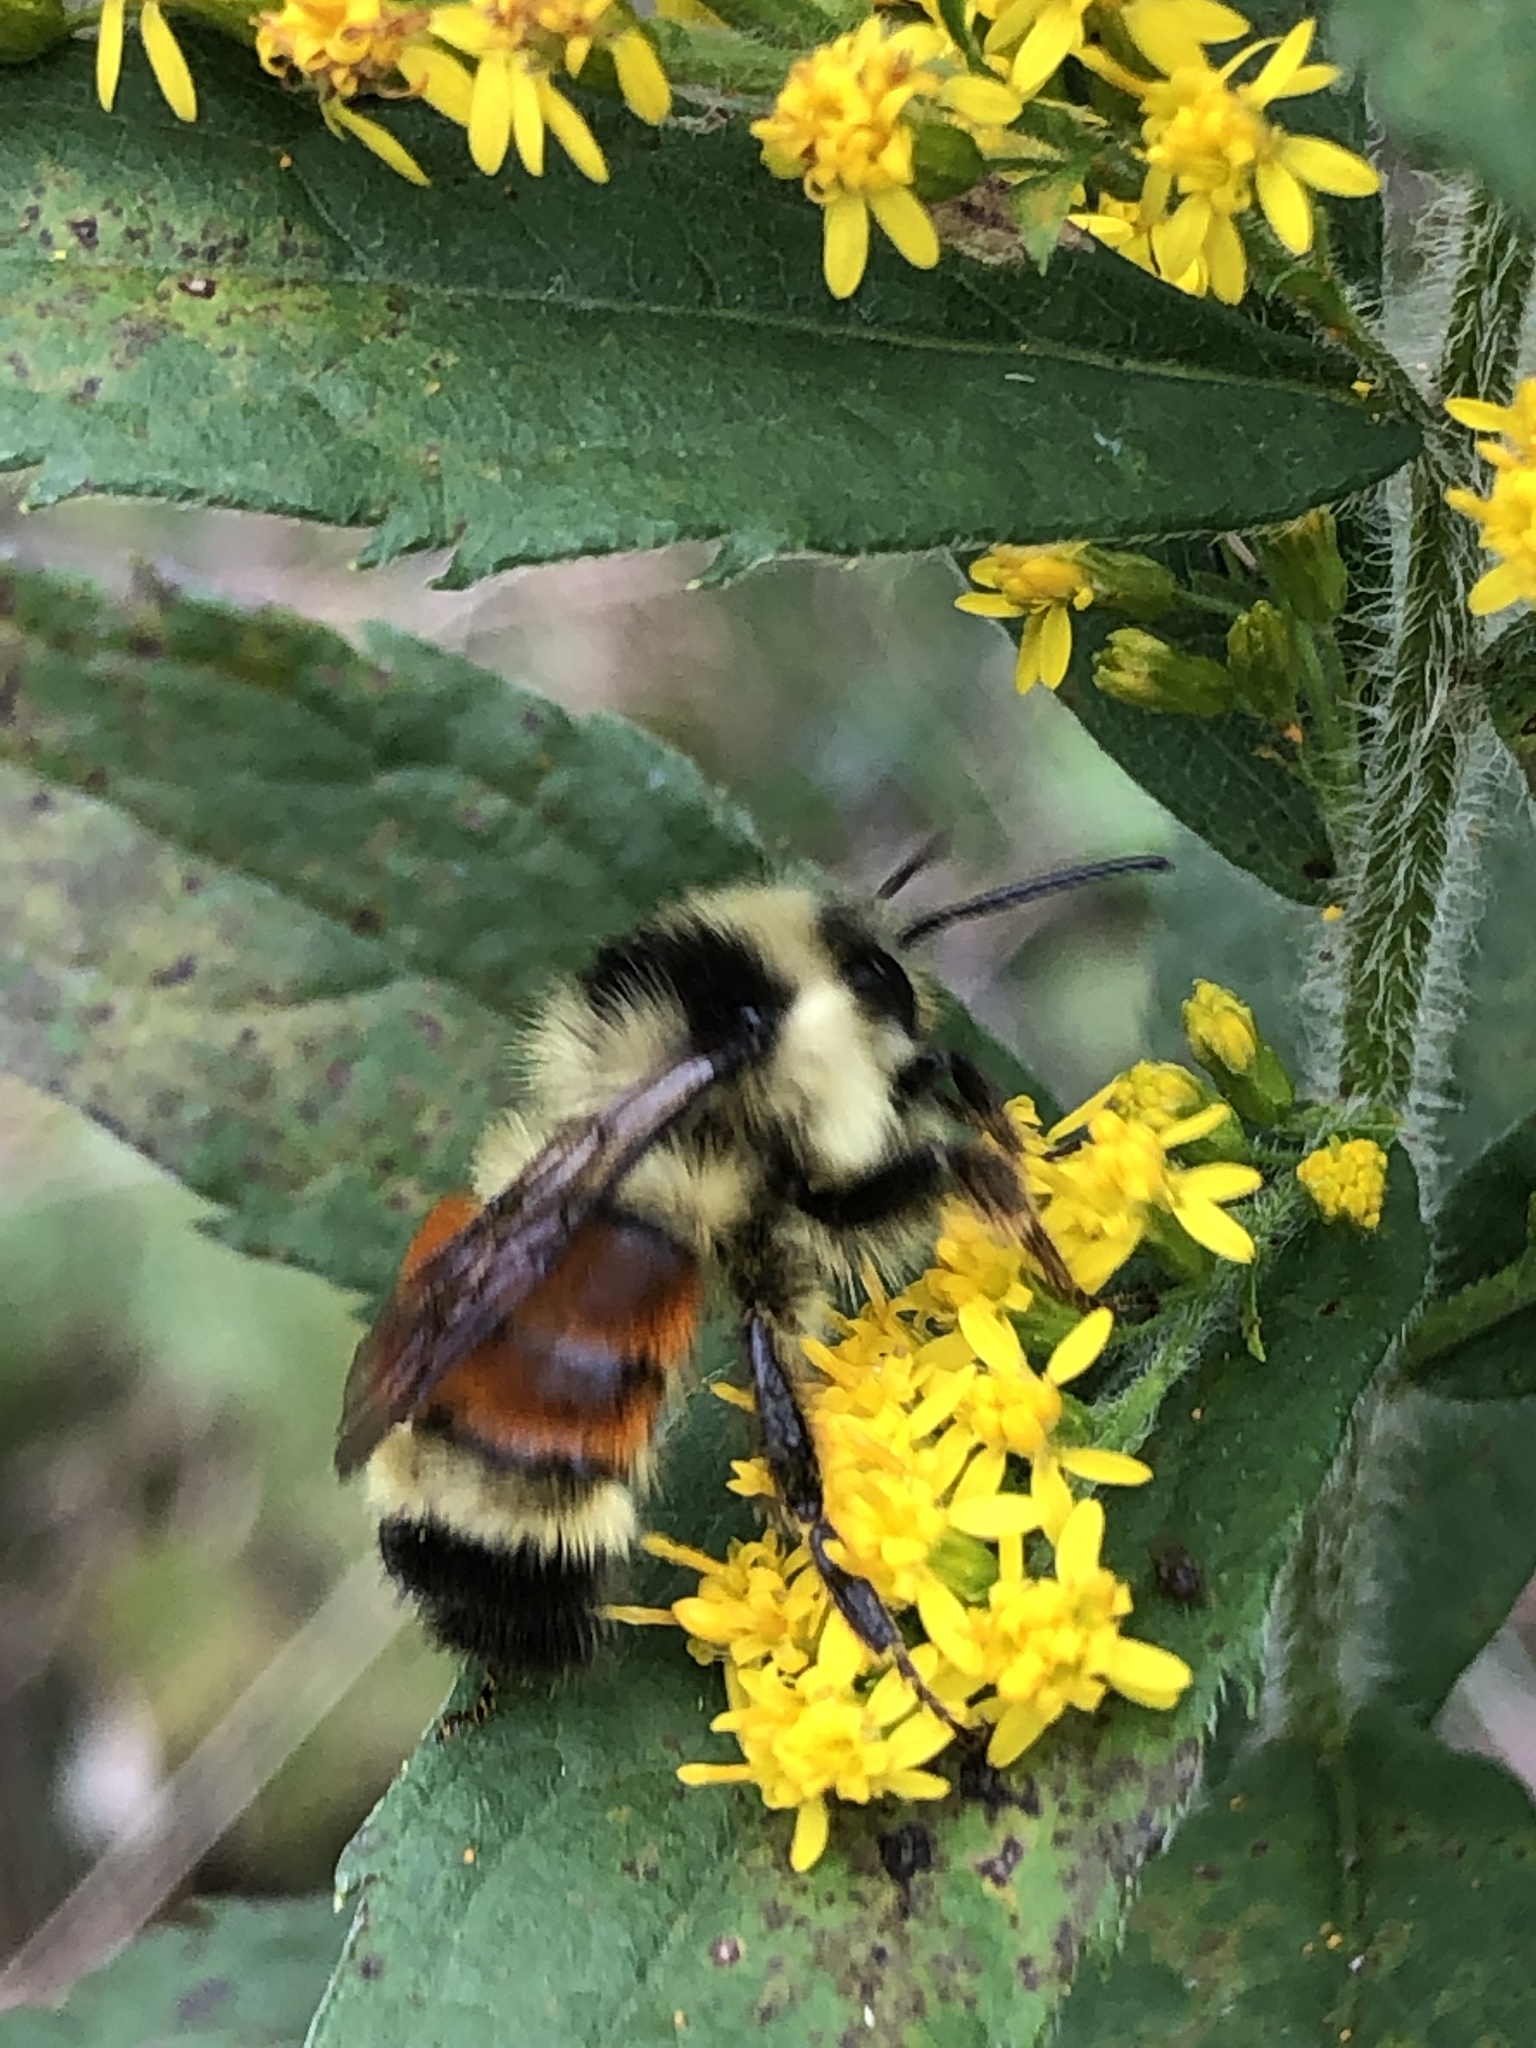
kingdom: Animalia
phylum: Arthropoda
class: Insecta
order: Hymenoptera
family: Apidae
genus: Bombus
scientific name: Bombus ternarius
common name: Tri-colored bumble bee
